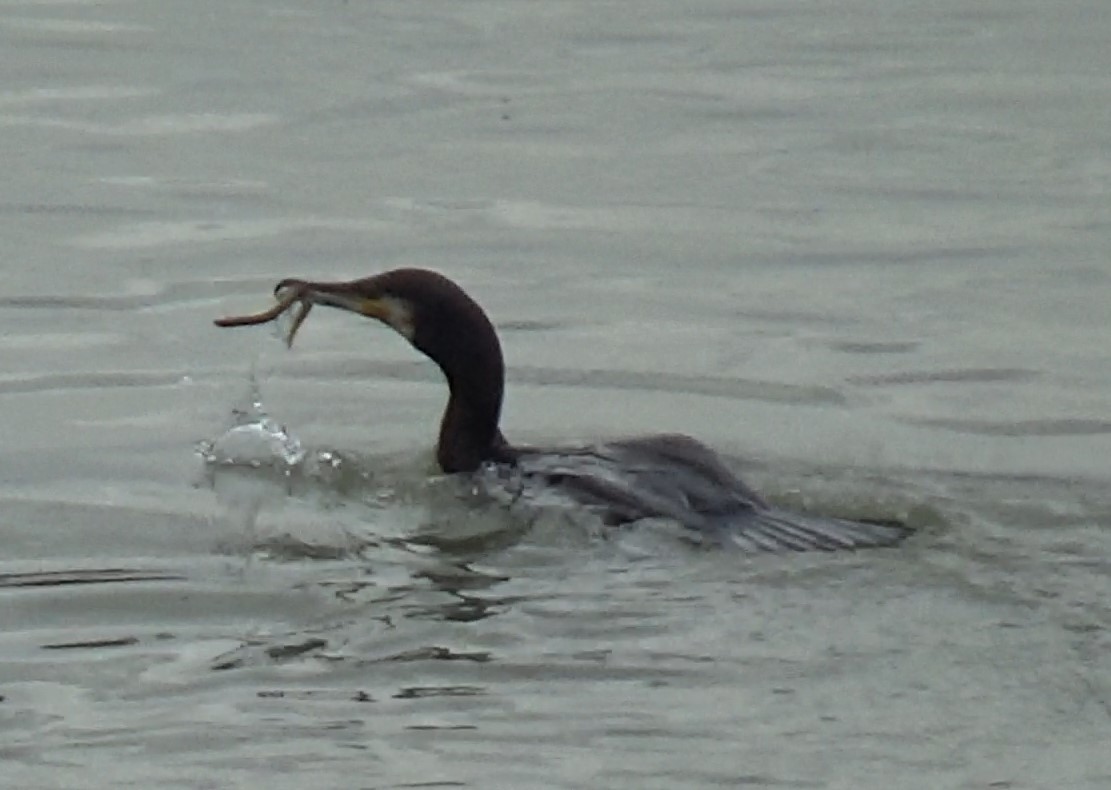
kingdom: Animalia
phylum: Chordata
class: Aves
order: Suliformes
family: Phalacrocoracidae
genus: Phalacrocorax
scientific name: Phalacrocorax carbo
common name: Great cormorant
